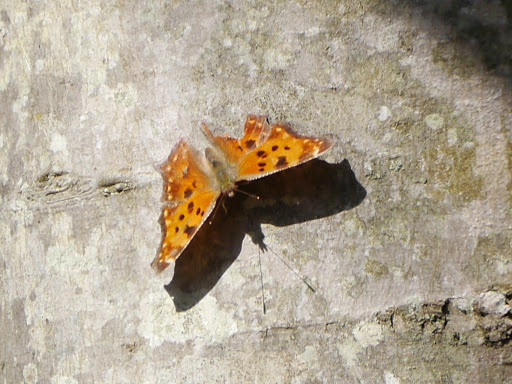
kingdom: Animalia
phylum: Arthropoda
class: Insecta
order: Lepidoptera
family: Nymphalidae
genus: Polygonia
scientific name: Polygonia comma
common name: Eastern comma
